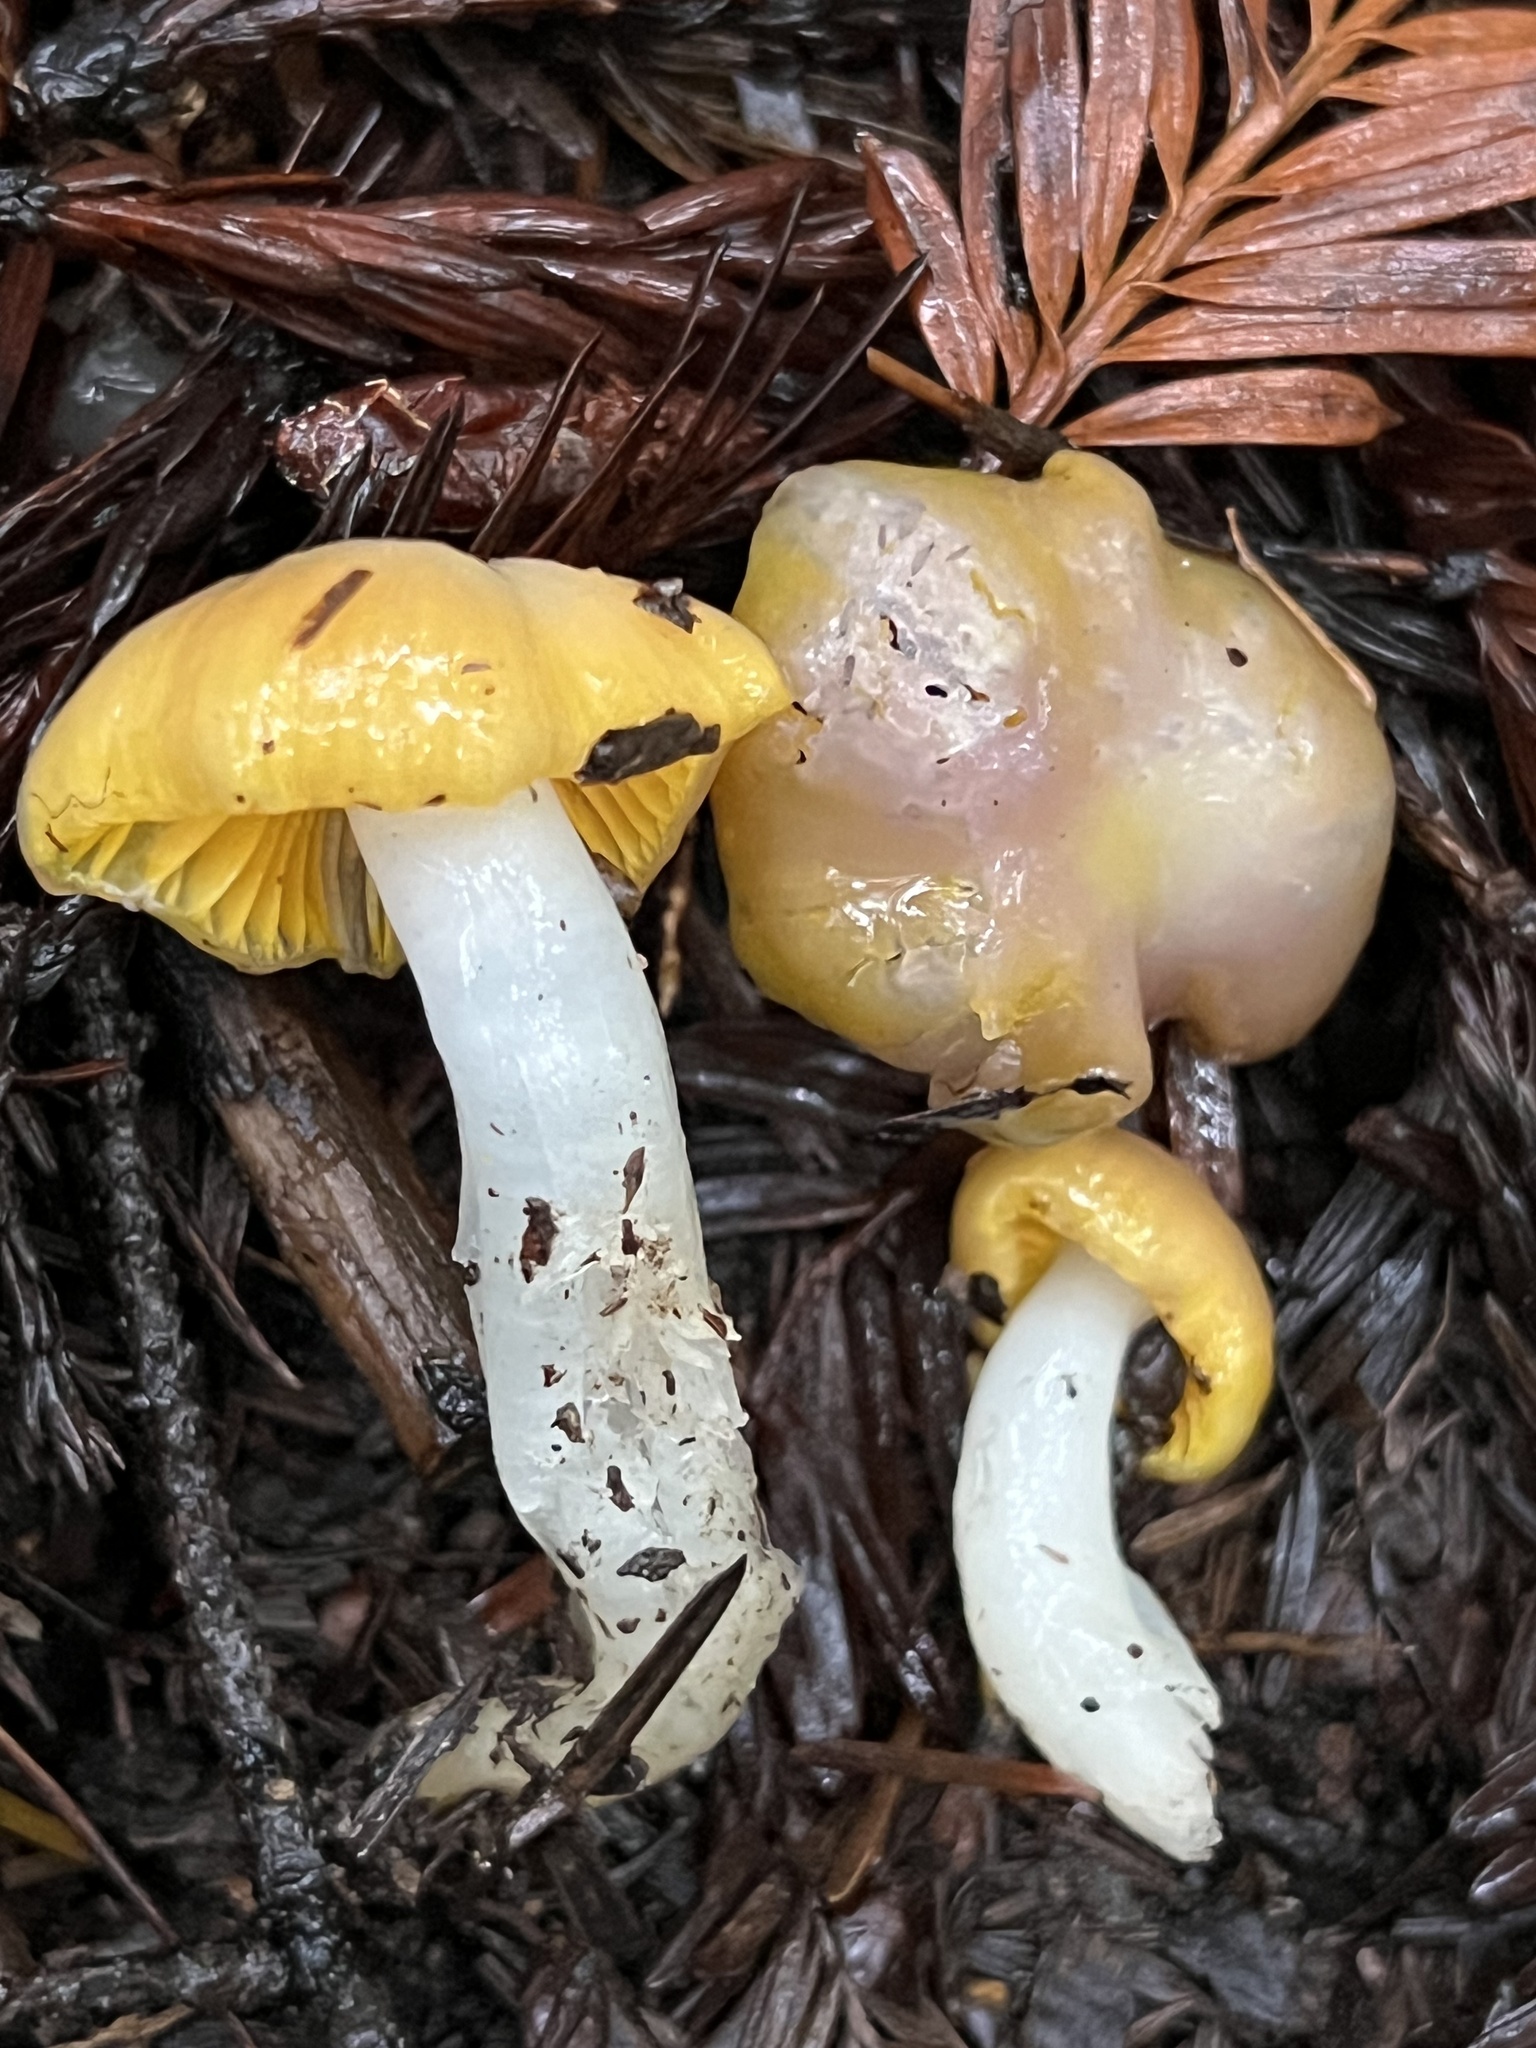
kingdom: Fungi
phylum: Basidiomycota
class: Agaricomycetes
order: Agaricales
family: Hygrophoraceae
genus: Hygrocybe
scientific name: Hygrocybe flavifolia
